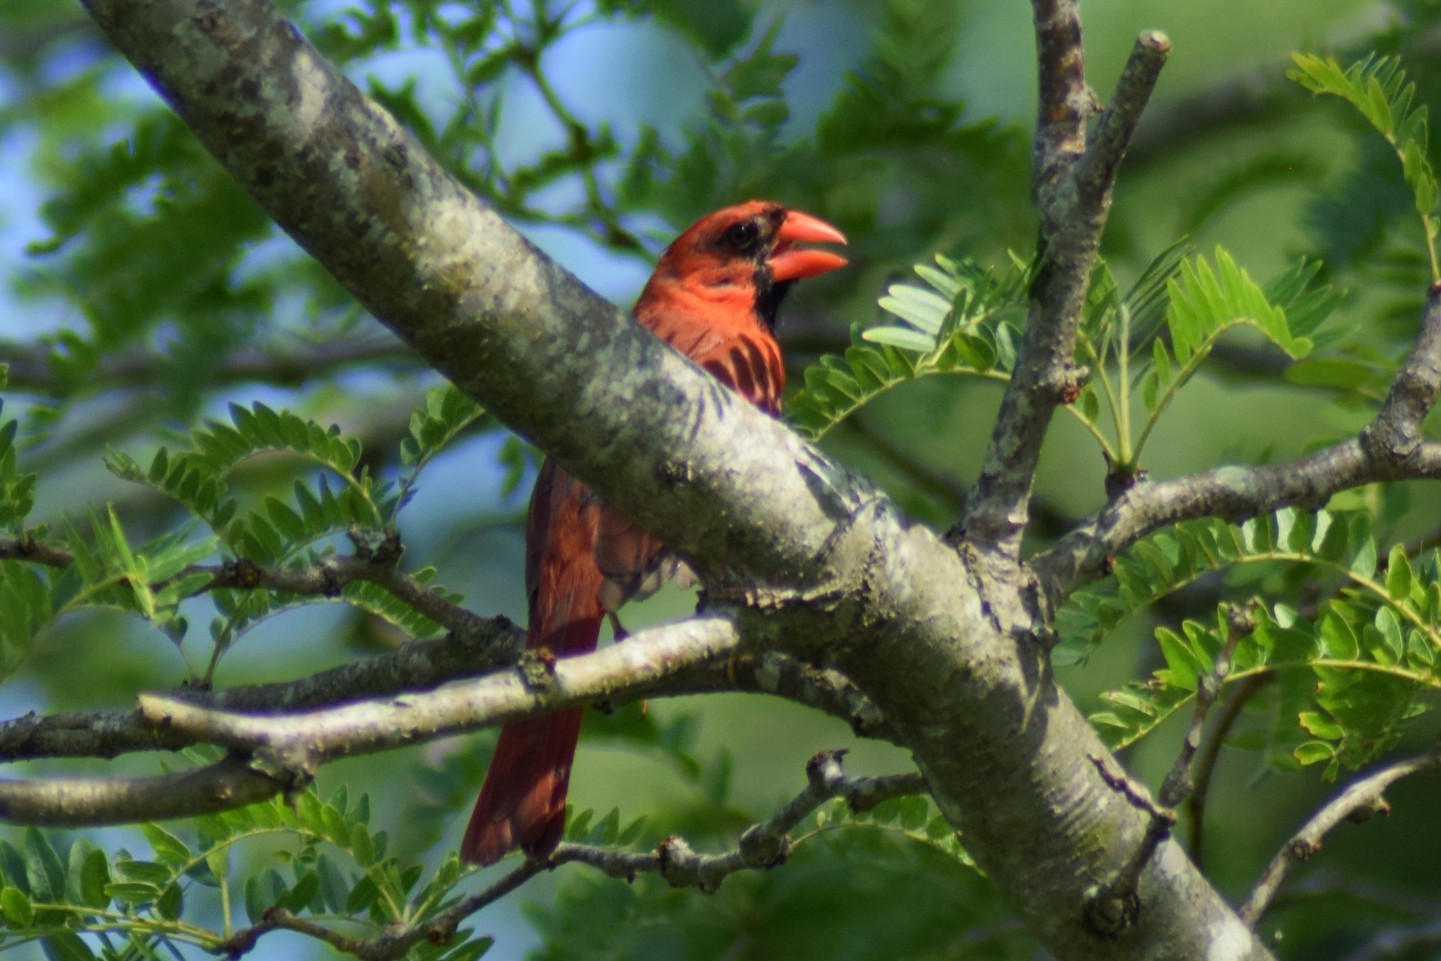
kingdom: Animalia
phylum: Chordata
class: Aves
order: Passeriformes
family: Cardinalidae
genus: Cardinalis
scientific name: Cardinalis cardinalis
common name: Northern cardinal
